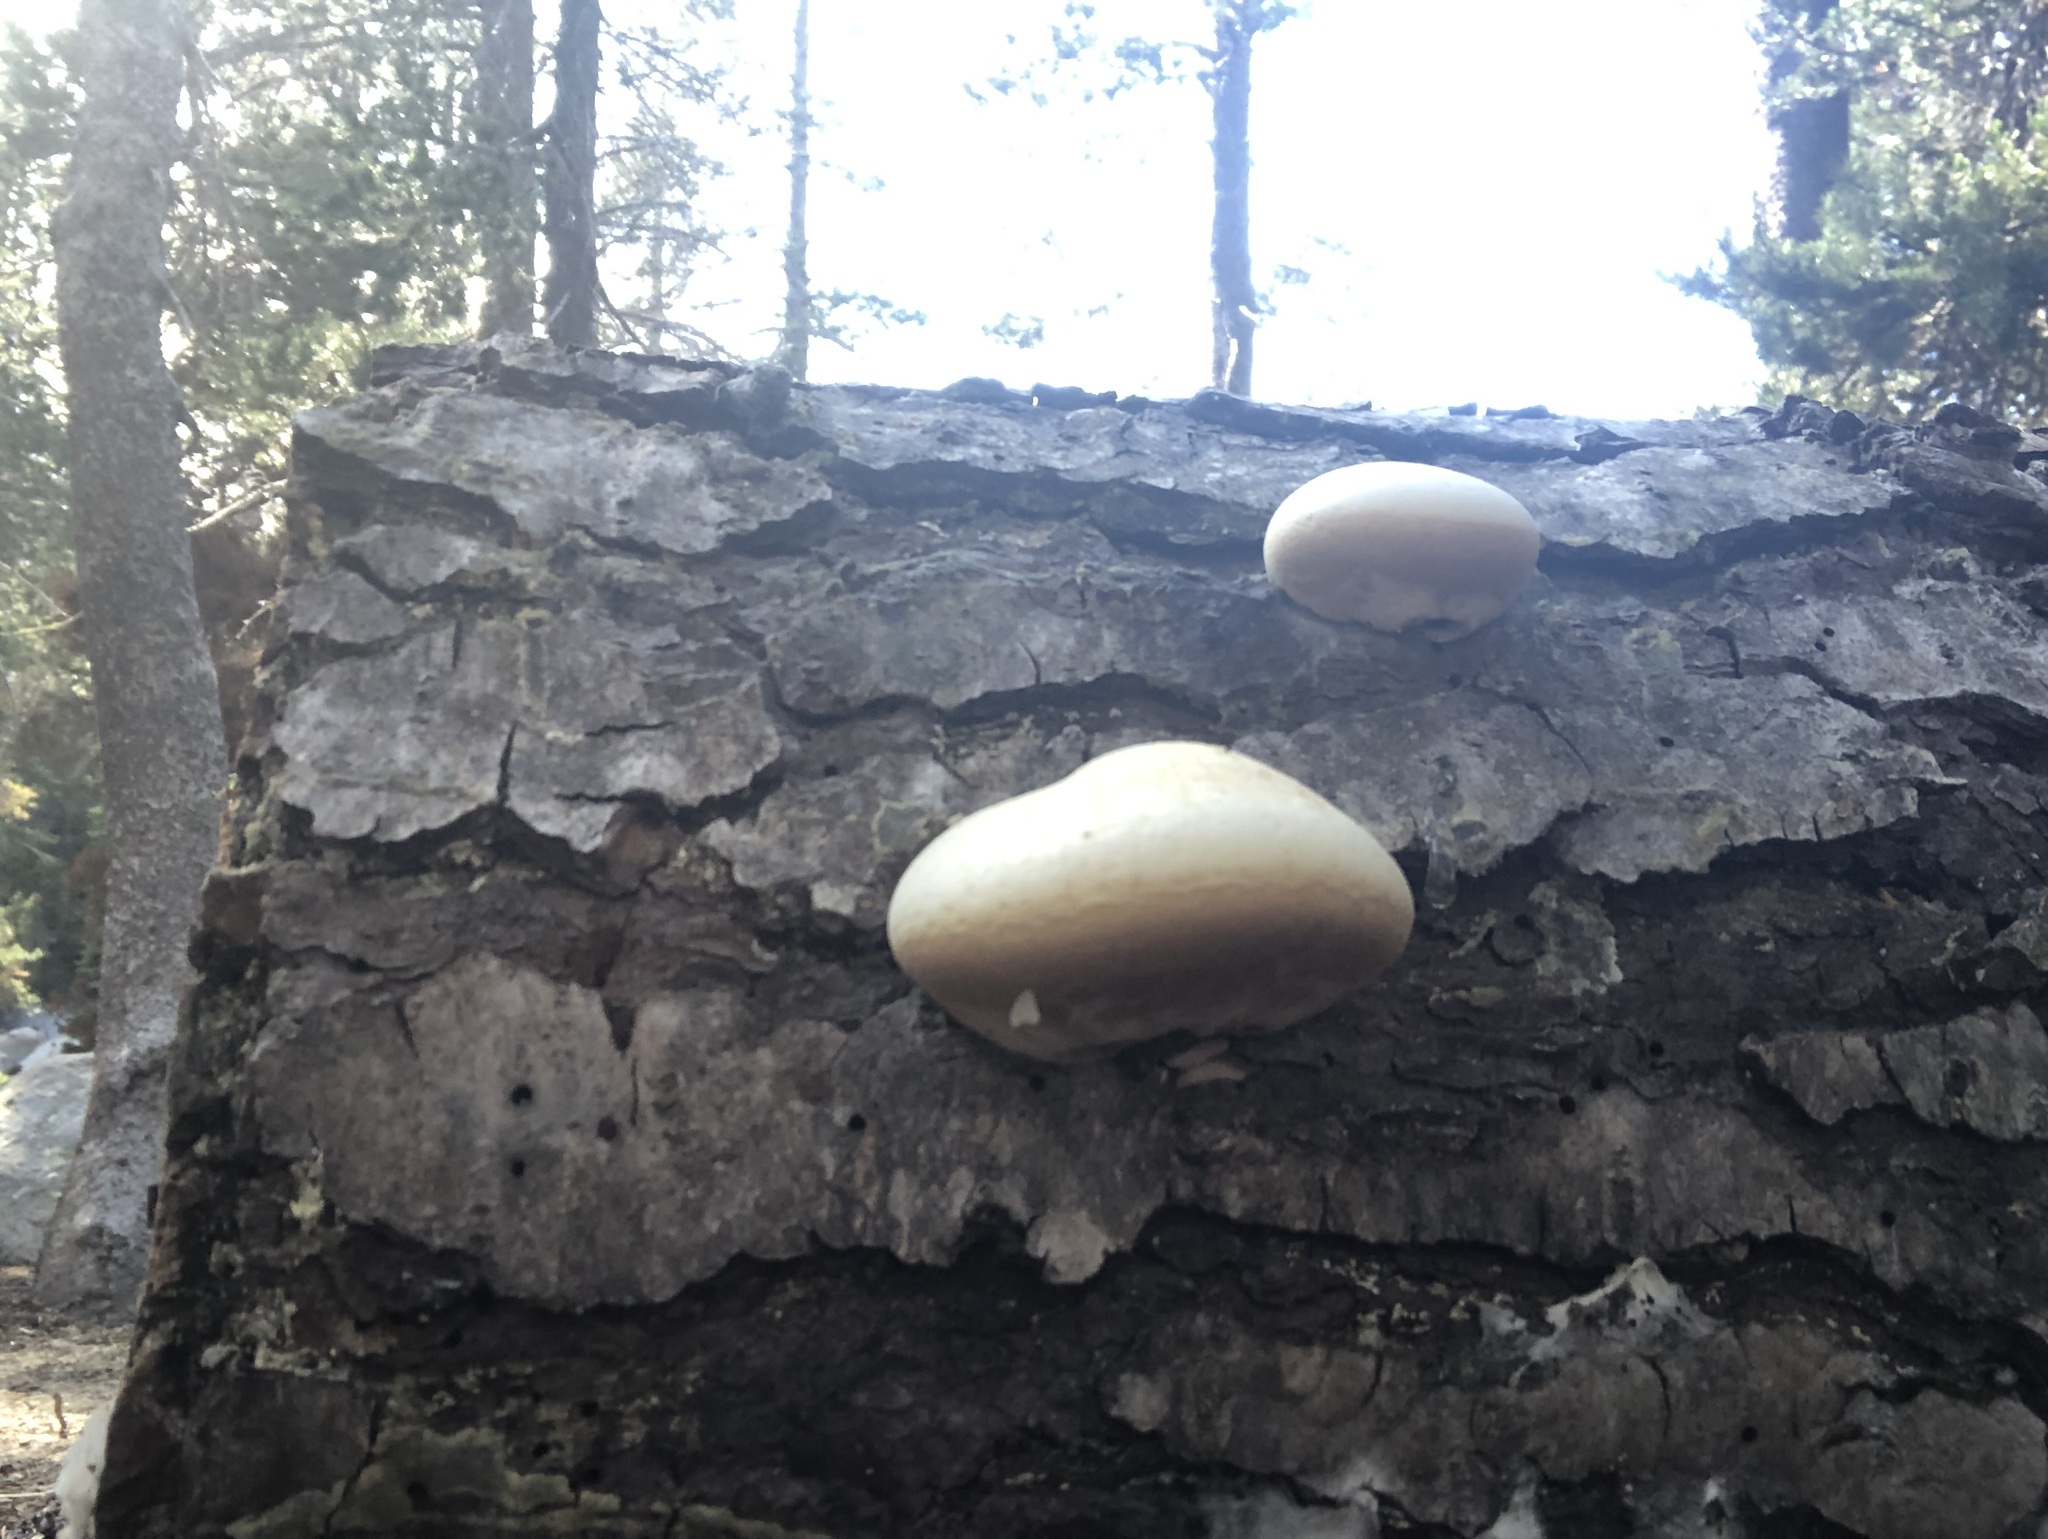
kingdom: Fungi
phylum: Basidiomycota
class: Agaricomycetes
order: Polyporales
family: Polyporaceae
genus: Cryptoporus
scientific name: Cryptoporus volvatus
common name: Veiled polypore
